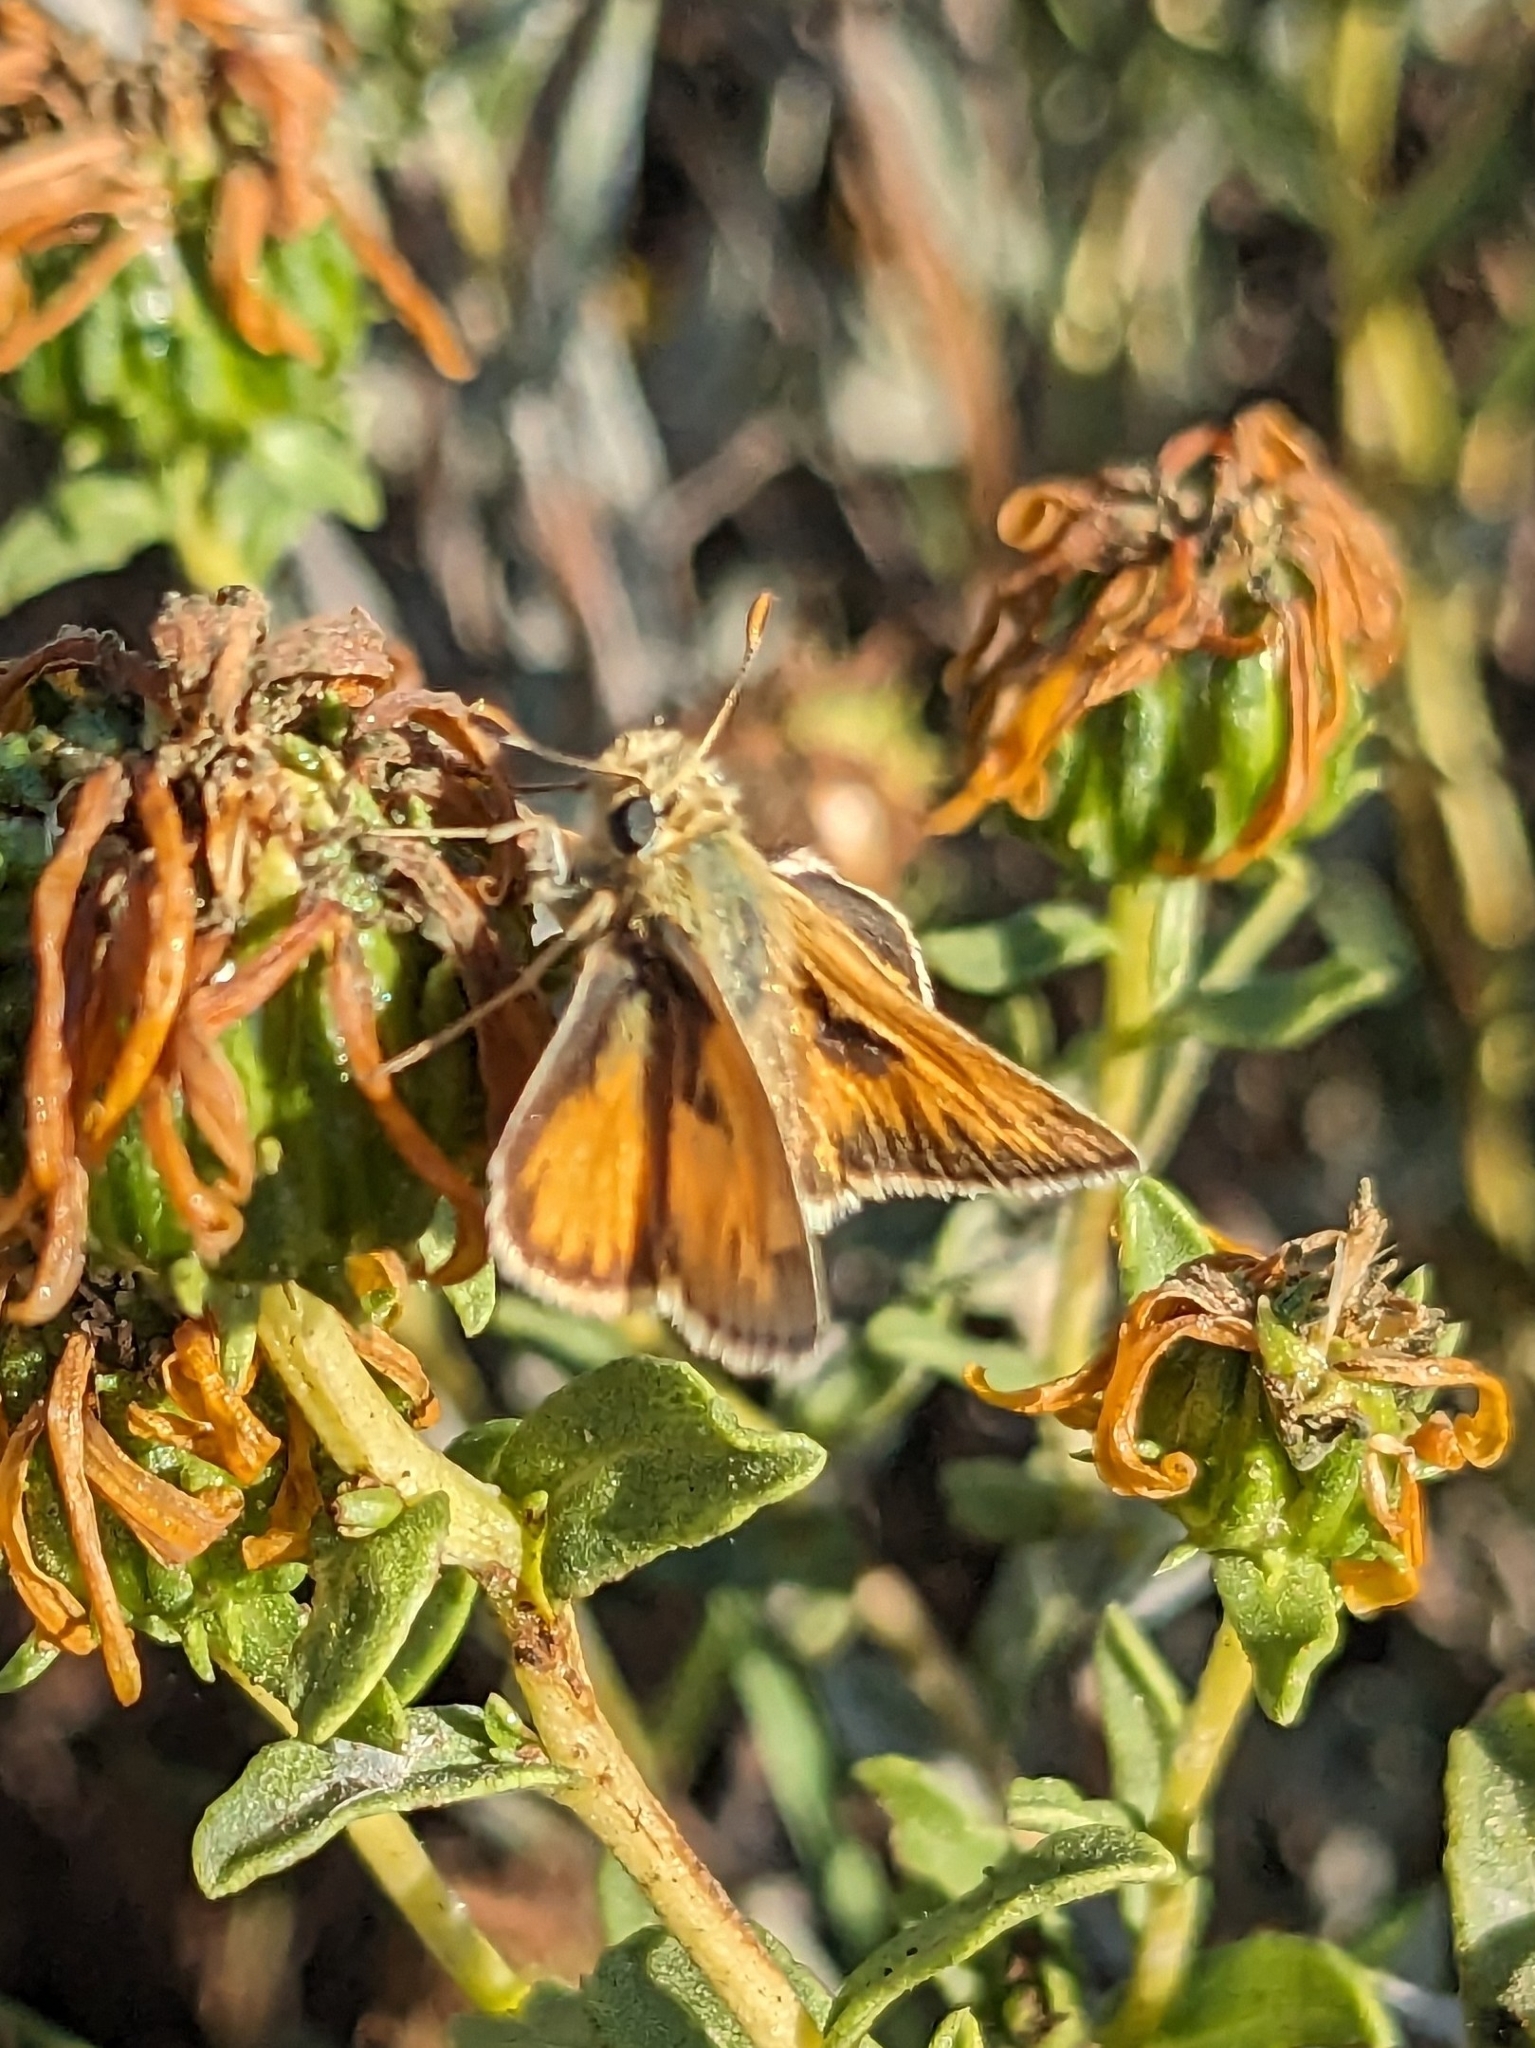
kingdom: Animalia
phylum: Arthropoda
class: Insecta
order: Lepidoptera
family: Hesperiidae
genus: Polites
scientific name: Polites sabuleti
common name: Sandhill skipper
